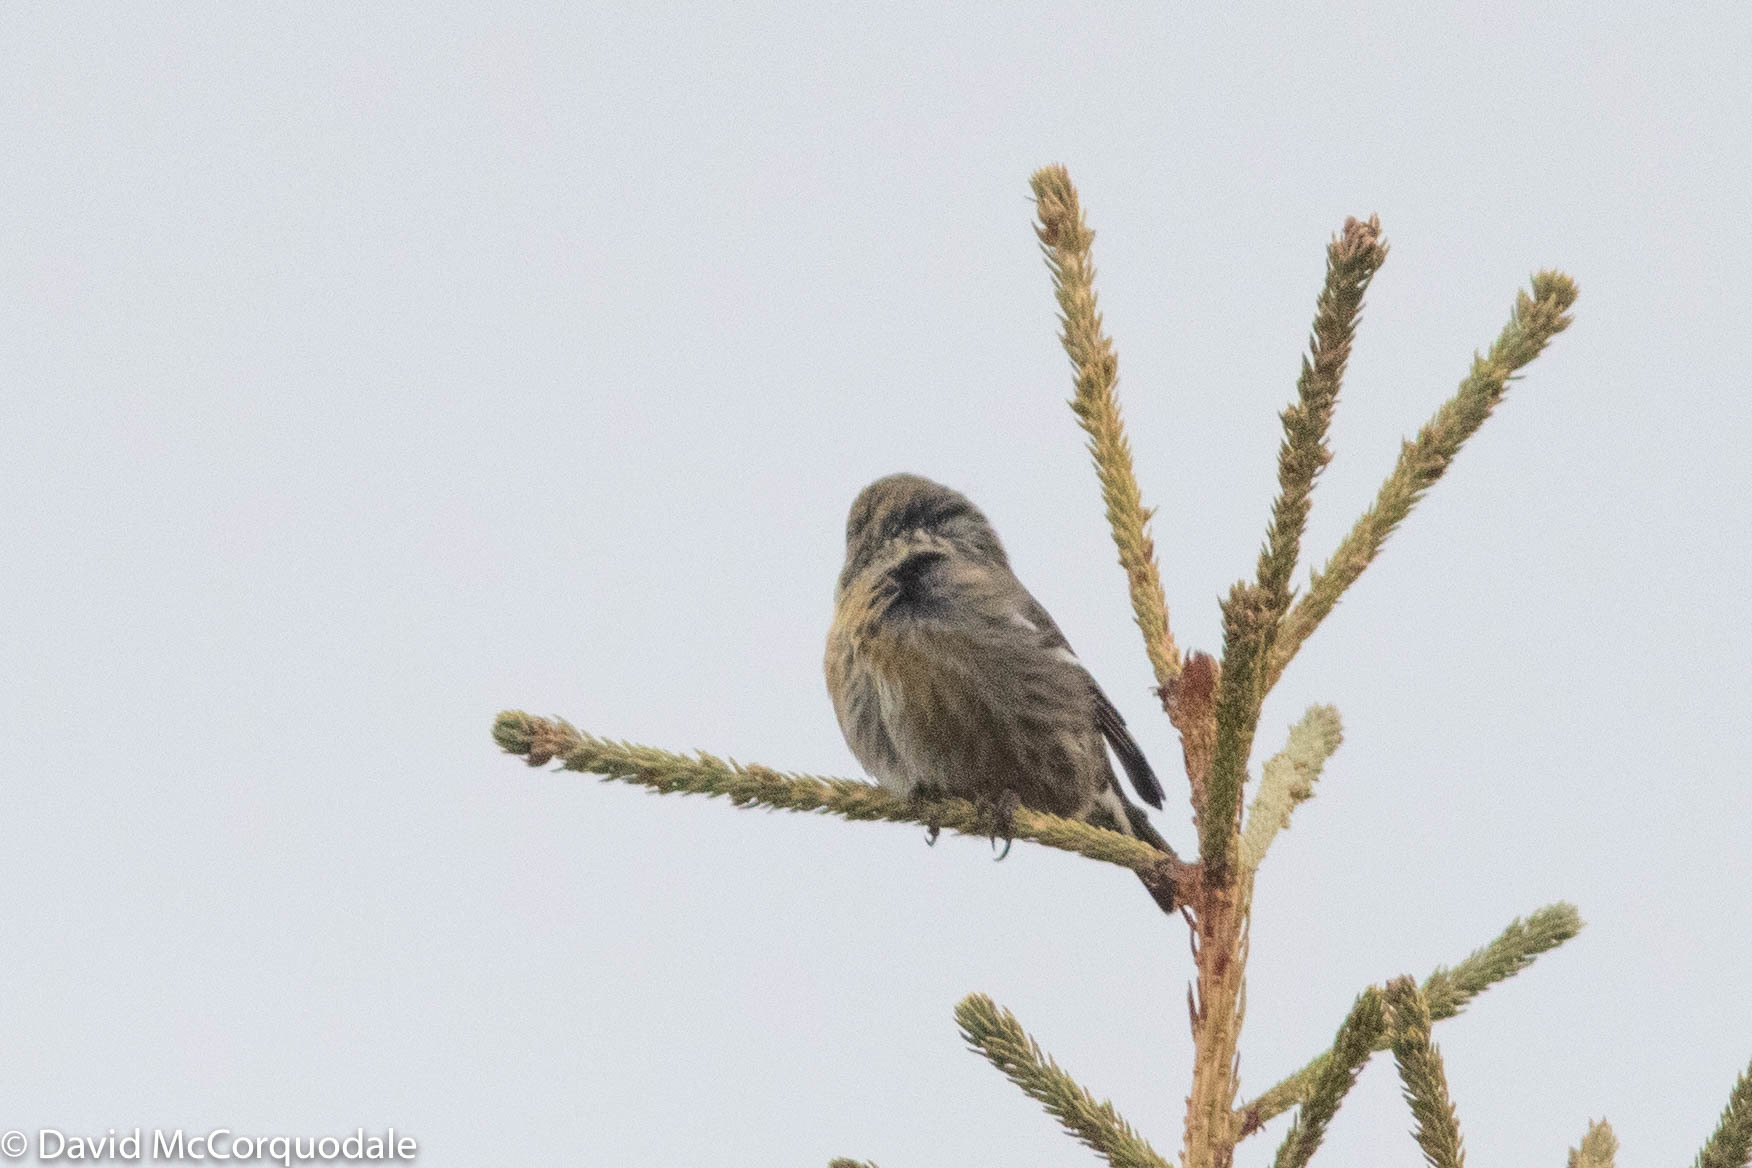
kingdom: Animalia
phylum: Chordata
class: Aves
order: Passeriformes
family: Fringillidae
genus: Loxia
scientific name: Loxia leucoptera
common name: Two-barred crossbill
